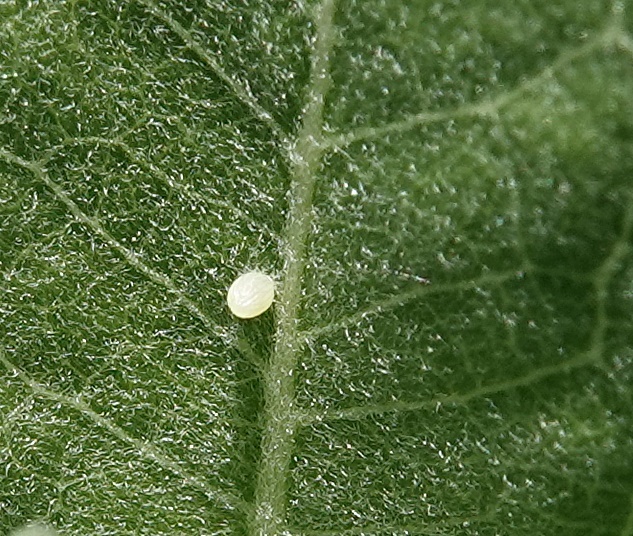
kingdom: Animalia
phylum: Arthropoda
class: Insecta
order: Lepidoptera
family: Nymphalidae
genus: Danaus
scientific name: Danaus plexippus
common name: Monarch
